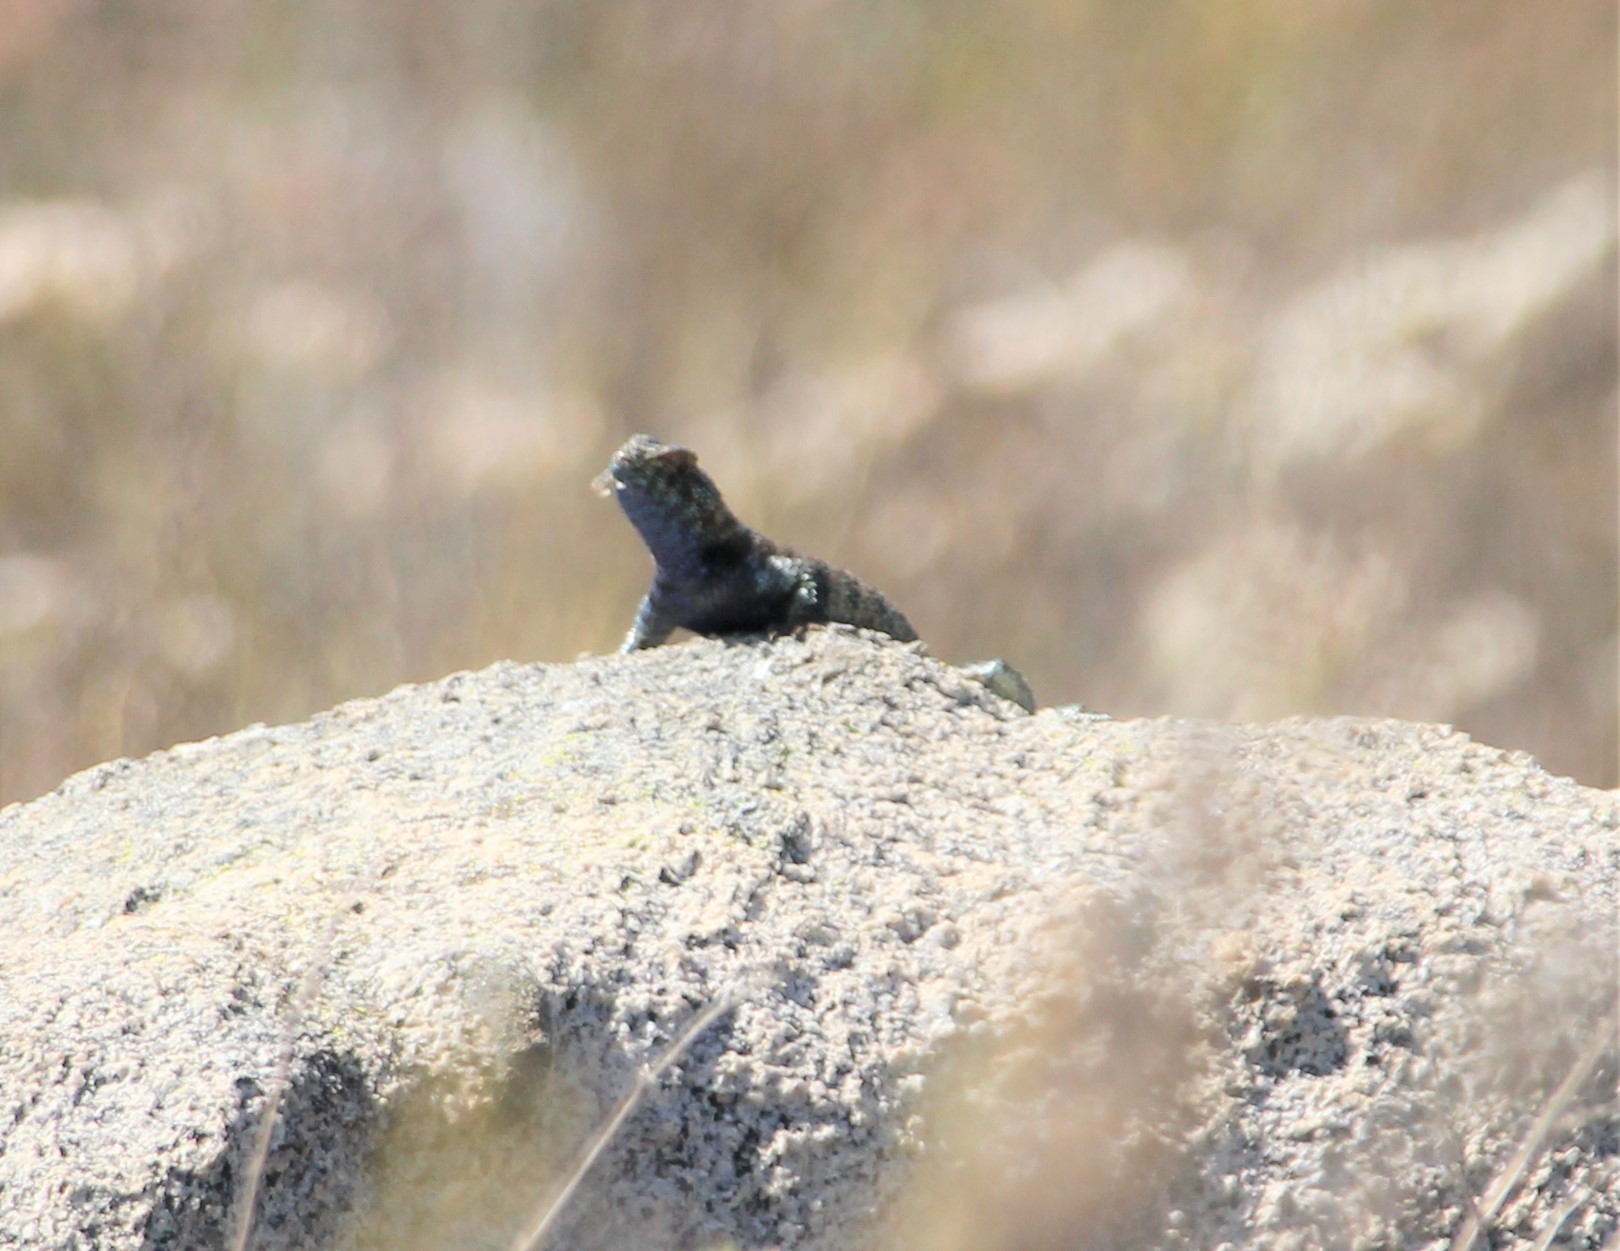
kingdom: Animalia
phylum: Chordata
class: Squamata
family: Phrynosomatidae
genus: Sceloporus
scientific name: Sceloporus orcutti
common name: Granite spiny lizard
